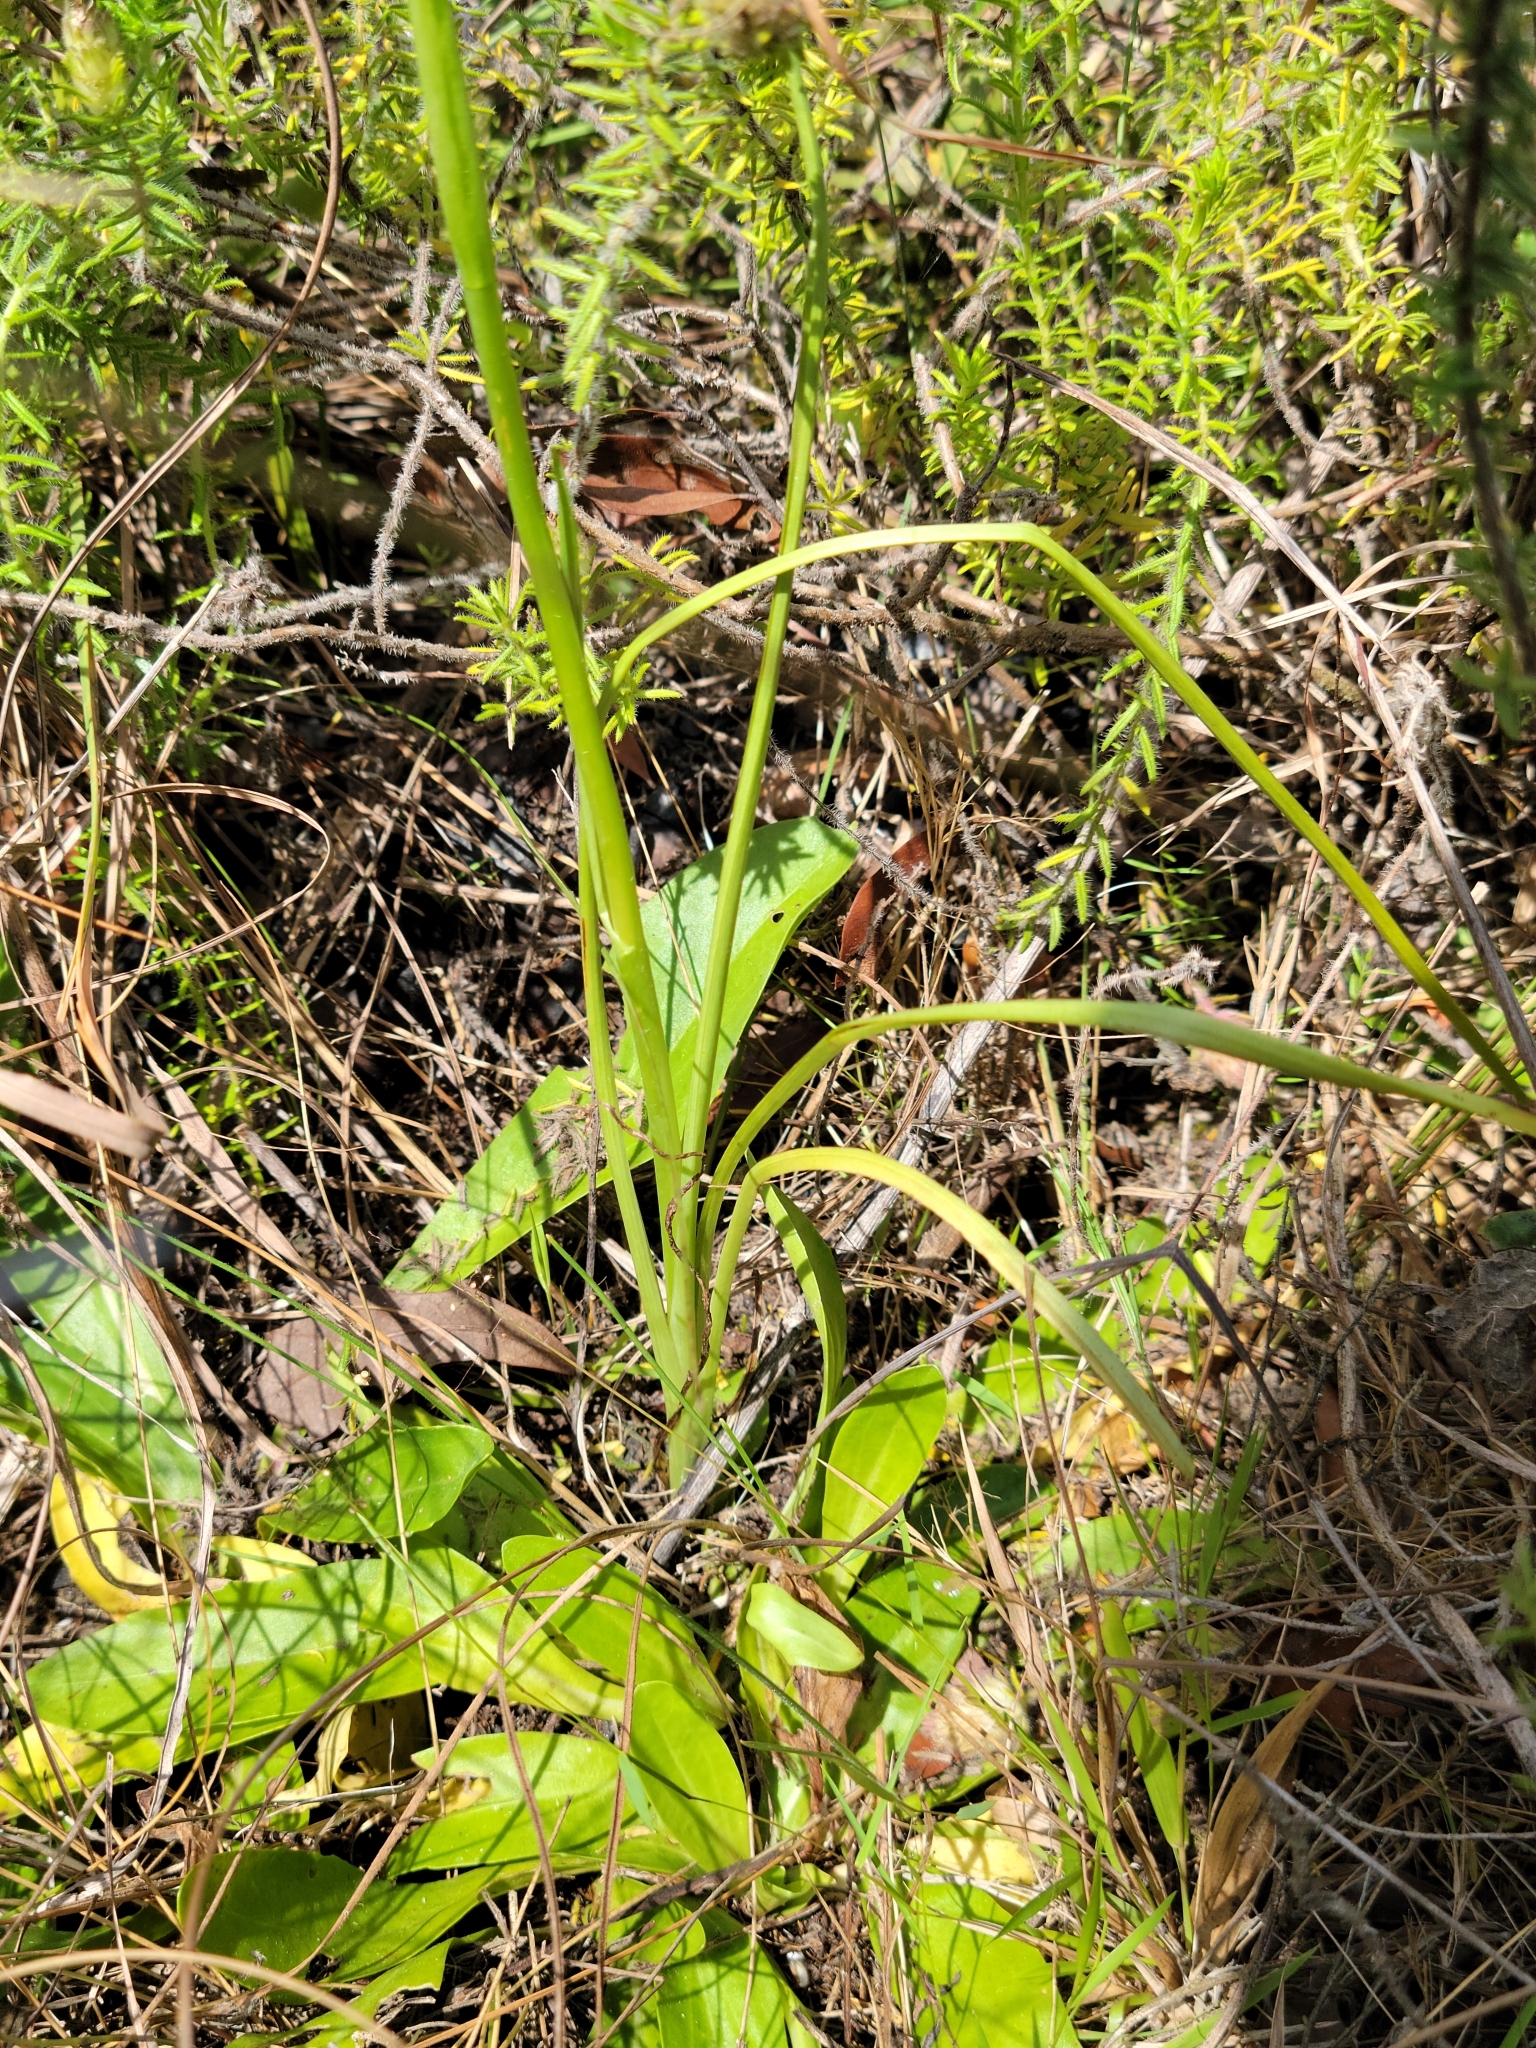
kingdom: Plantae
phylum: Tracheophyta
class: Liliopsida
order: Asparagales
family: Orchidaceae
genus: Spiranthes
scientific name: Spiranthes praecox
